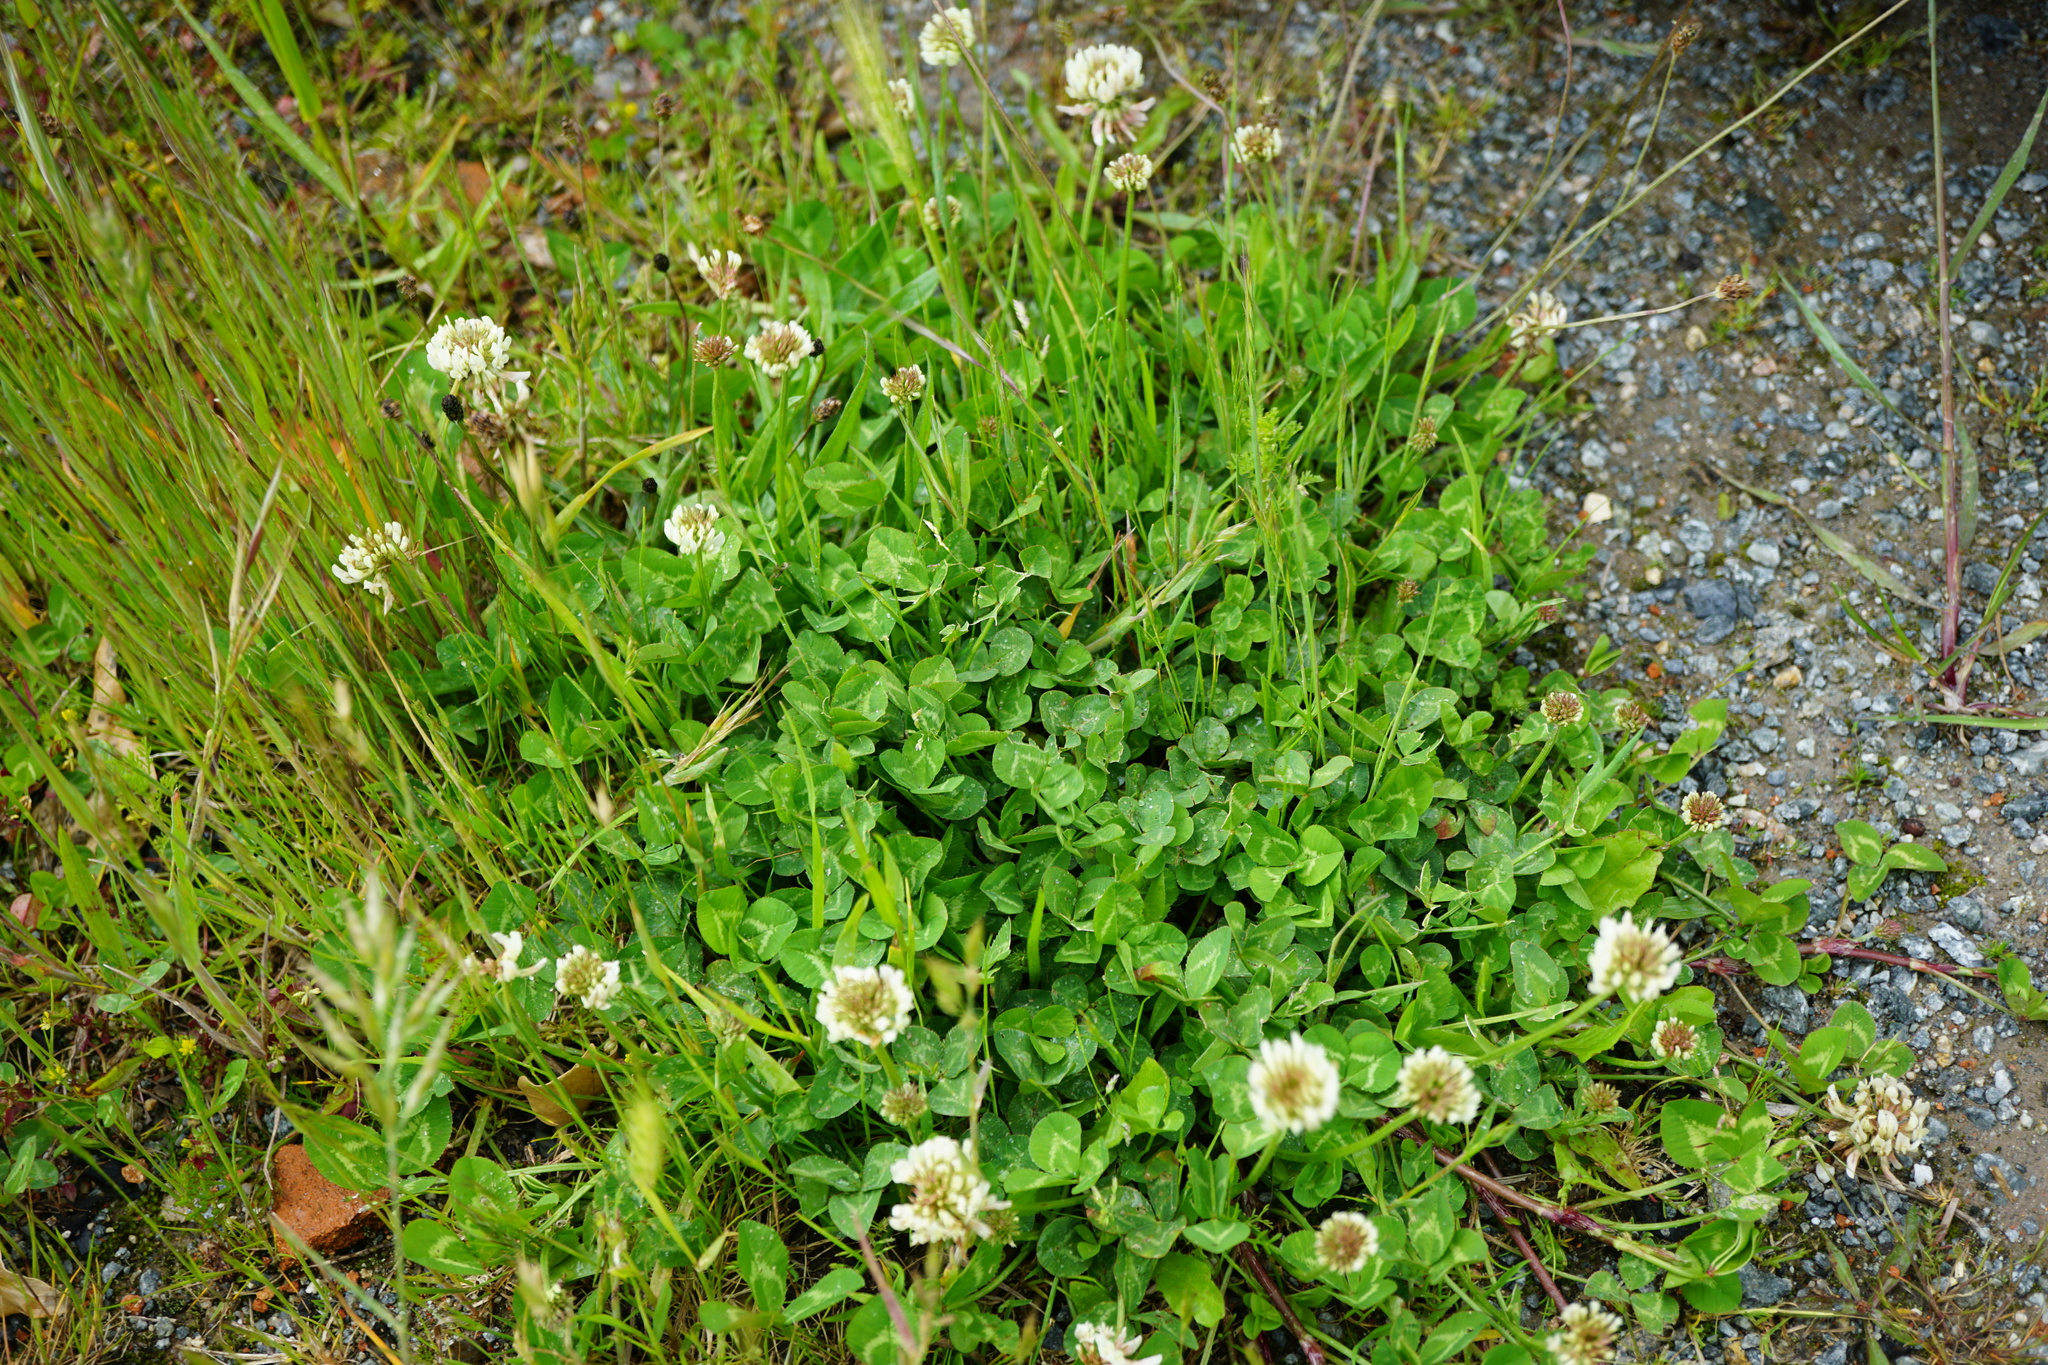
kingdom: Plantae
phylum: Tracheophyta
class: Magnoliopsida
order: Fabales
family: Fabaceae
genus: Trifolium
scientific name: Trifolium repens
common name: White clover
